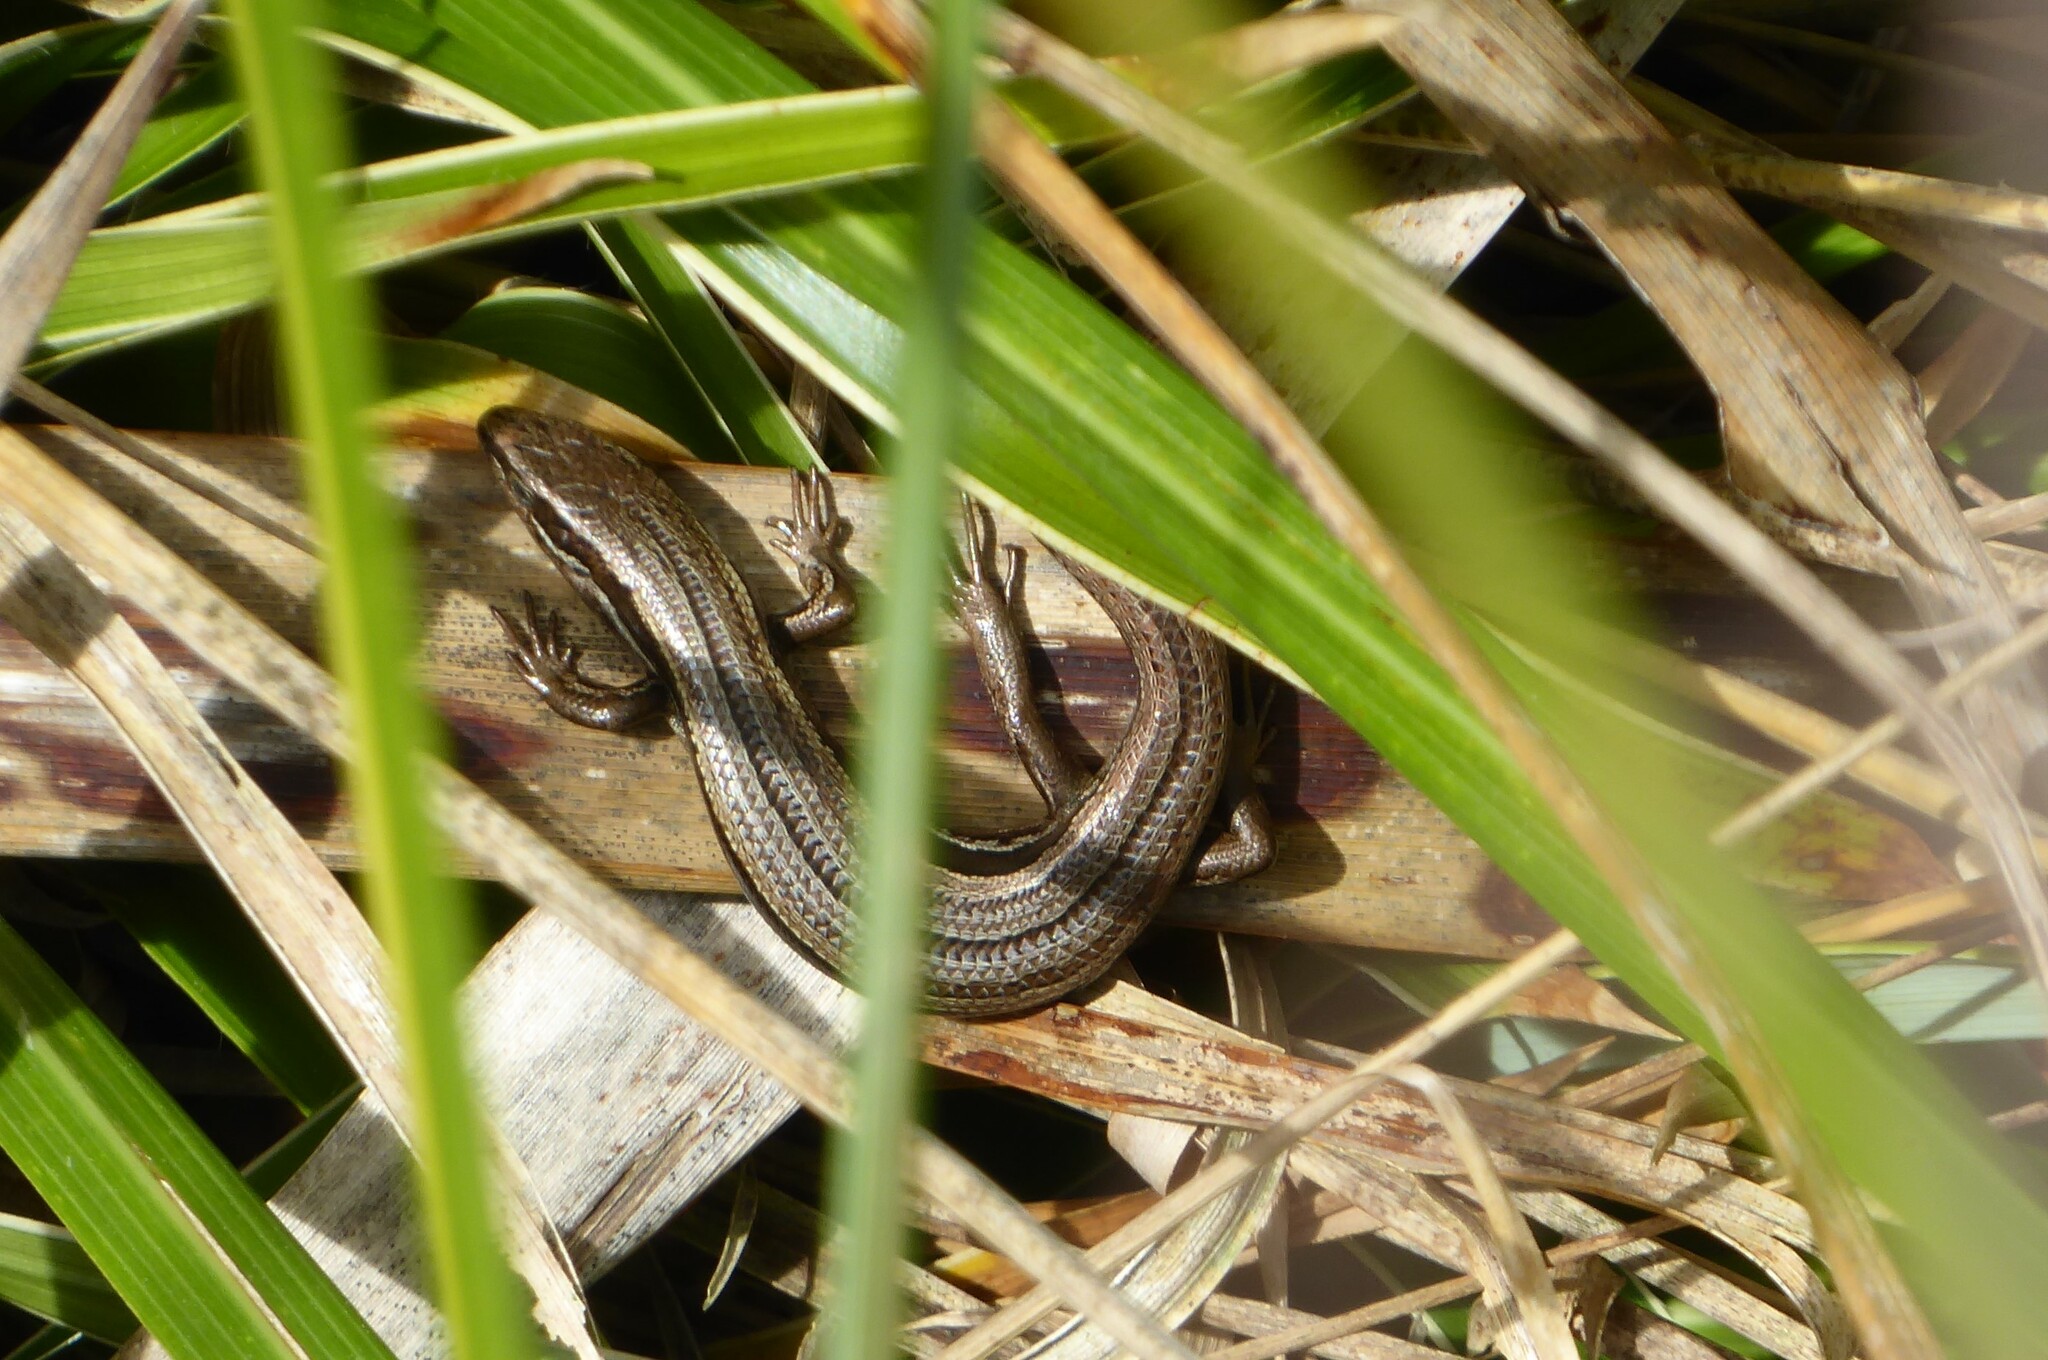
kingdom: Animalia
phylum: Chordata
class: Squamata
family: Scincidae
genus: Oligosoma
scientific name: Oligosoma polychroma
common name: Common new zealand skink
